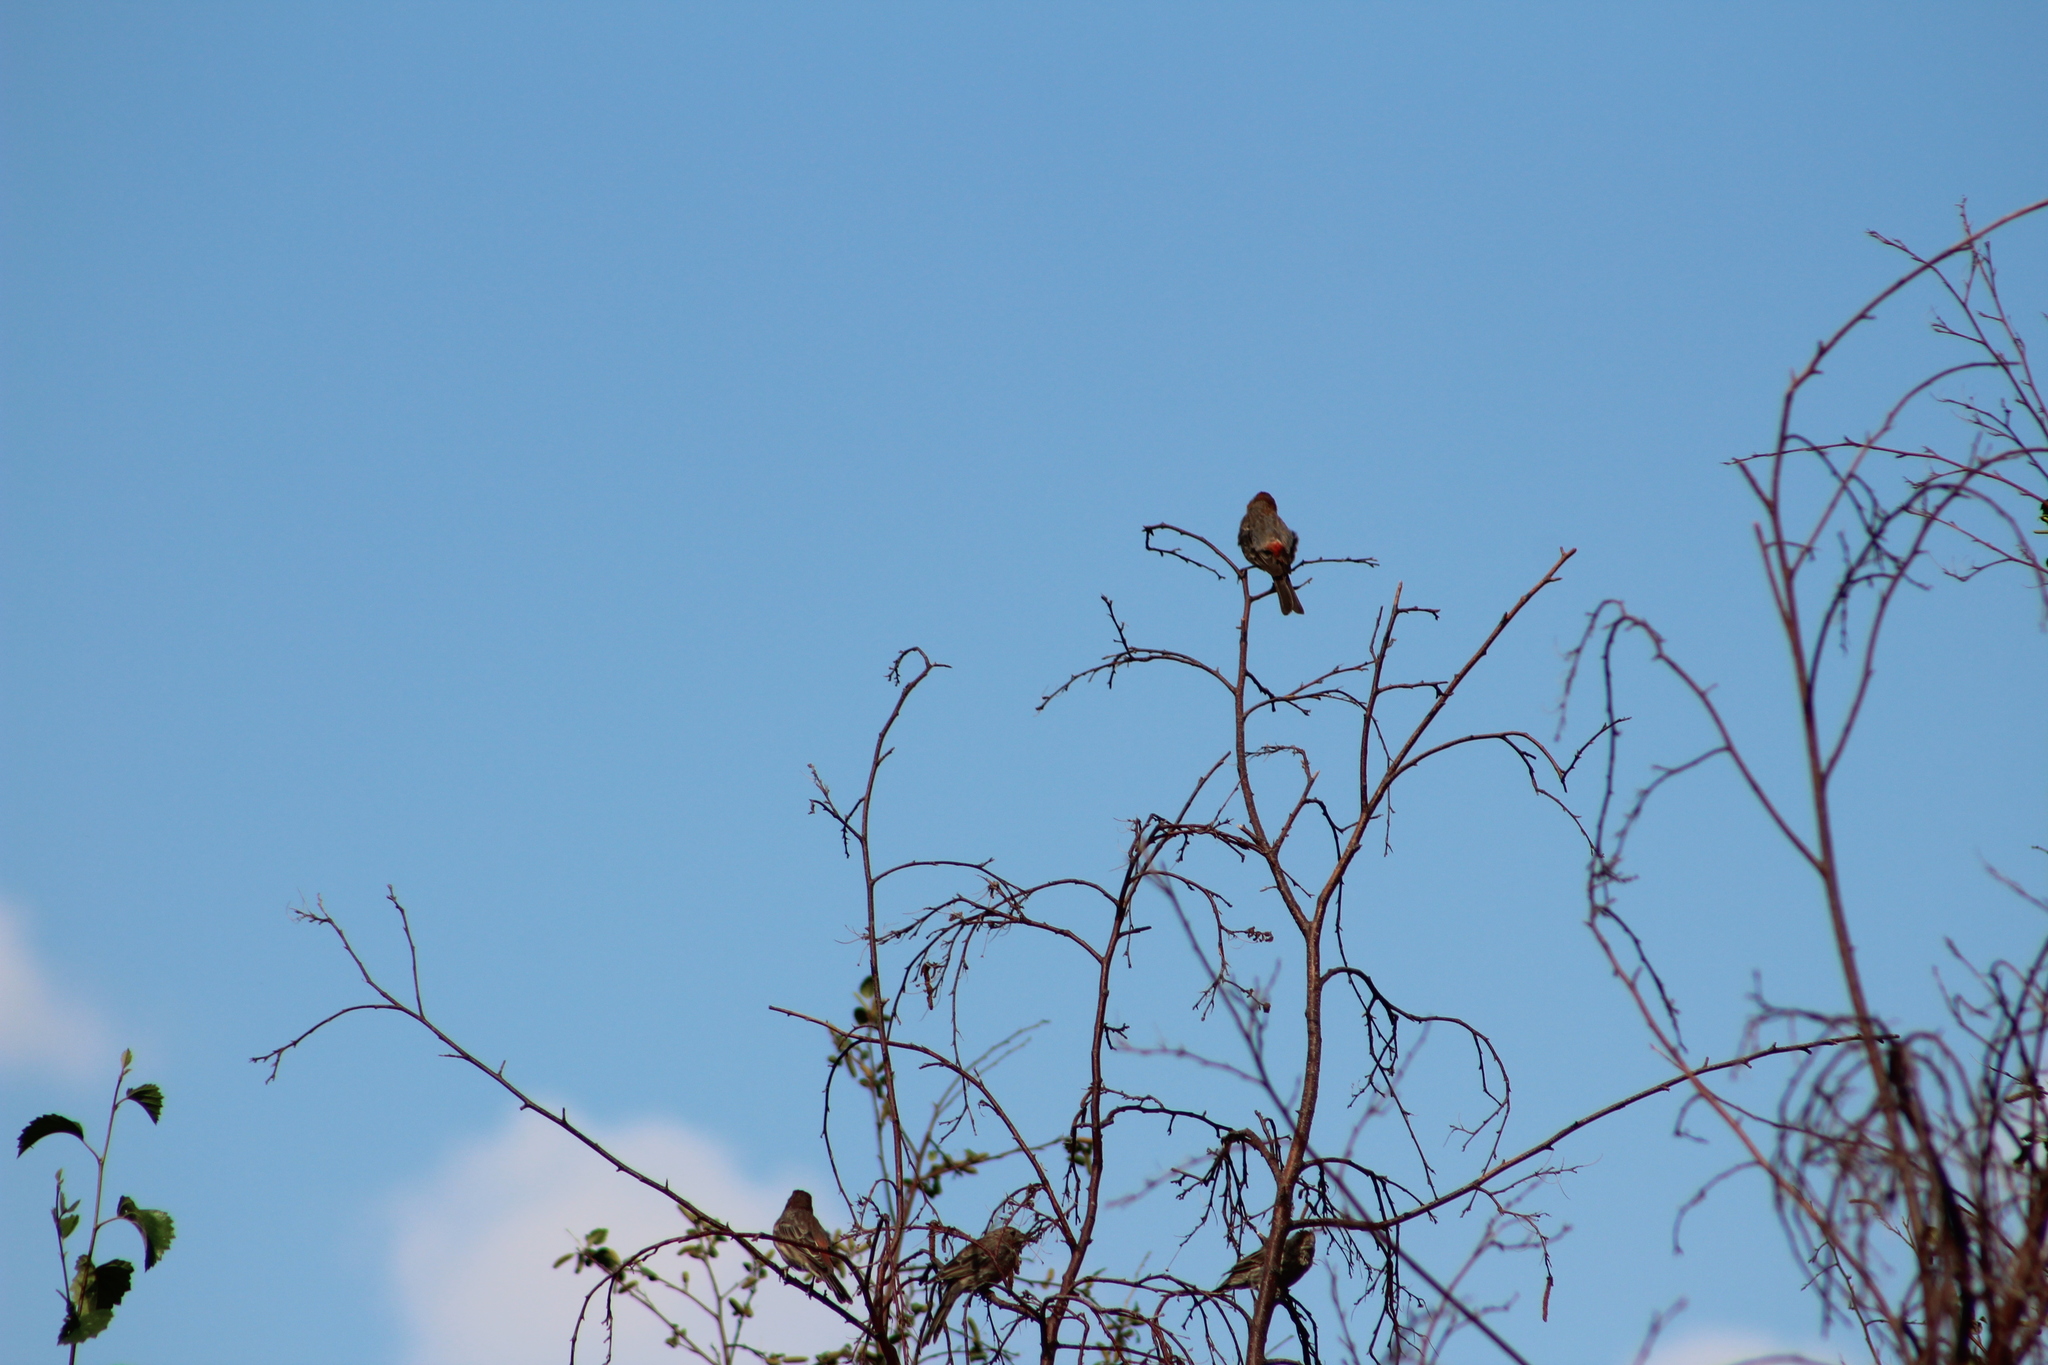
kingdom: Animalia
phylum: Chordata
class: Aves
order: Passeriformes
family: Fringillidae
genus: Haemorhous
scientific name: Haemorhous mexicanus
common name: House finch
